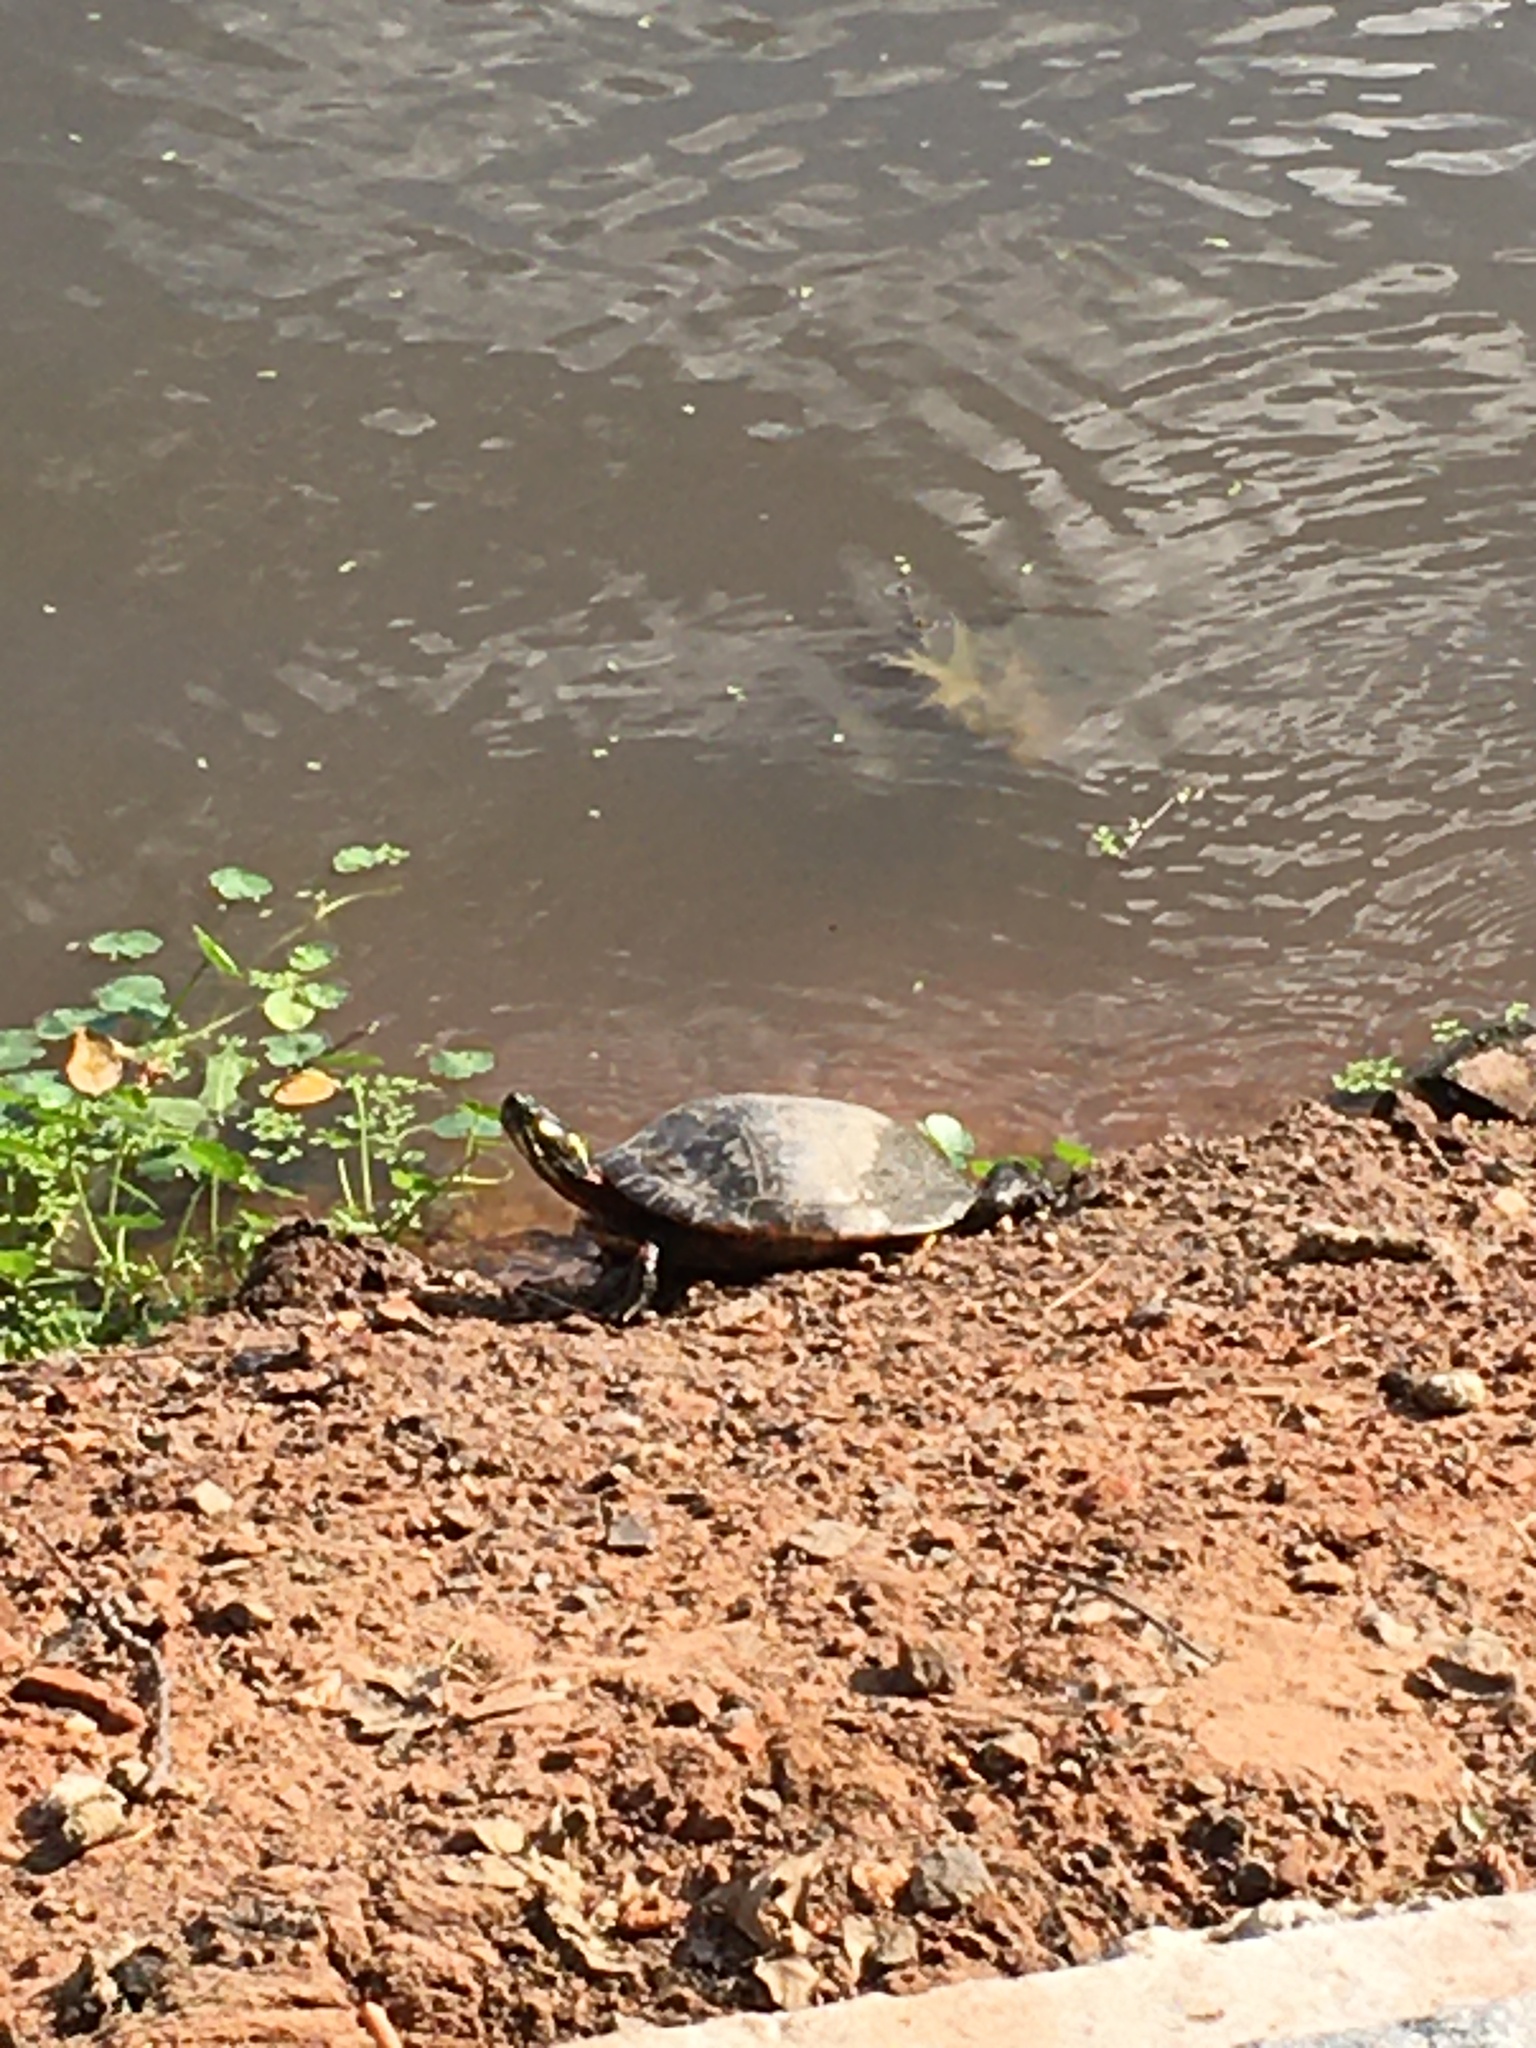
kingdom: Animalia
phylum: Chordata
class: Testudines
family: Emydidae
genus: Chrysemys
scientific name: Chrysemys picta
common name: Painted turtle
